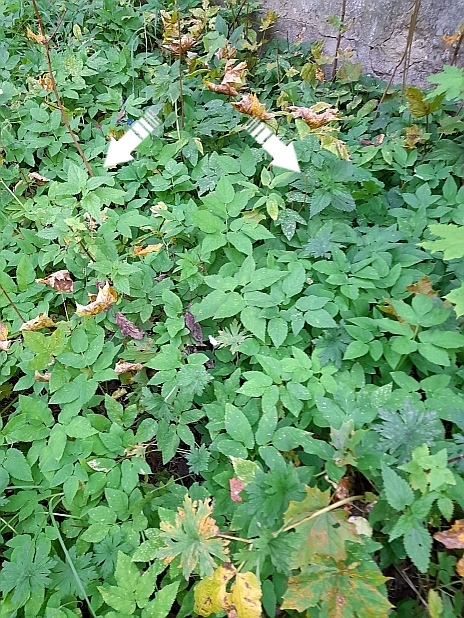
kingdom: Plantae
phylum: Tracheophyta
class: Magnoliopsida
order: Rosales
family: Urticaceae
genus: Urtica
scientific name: Urtica dioica
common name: Common nettle
